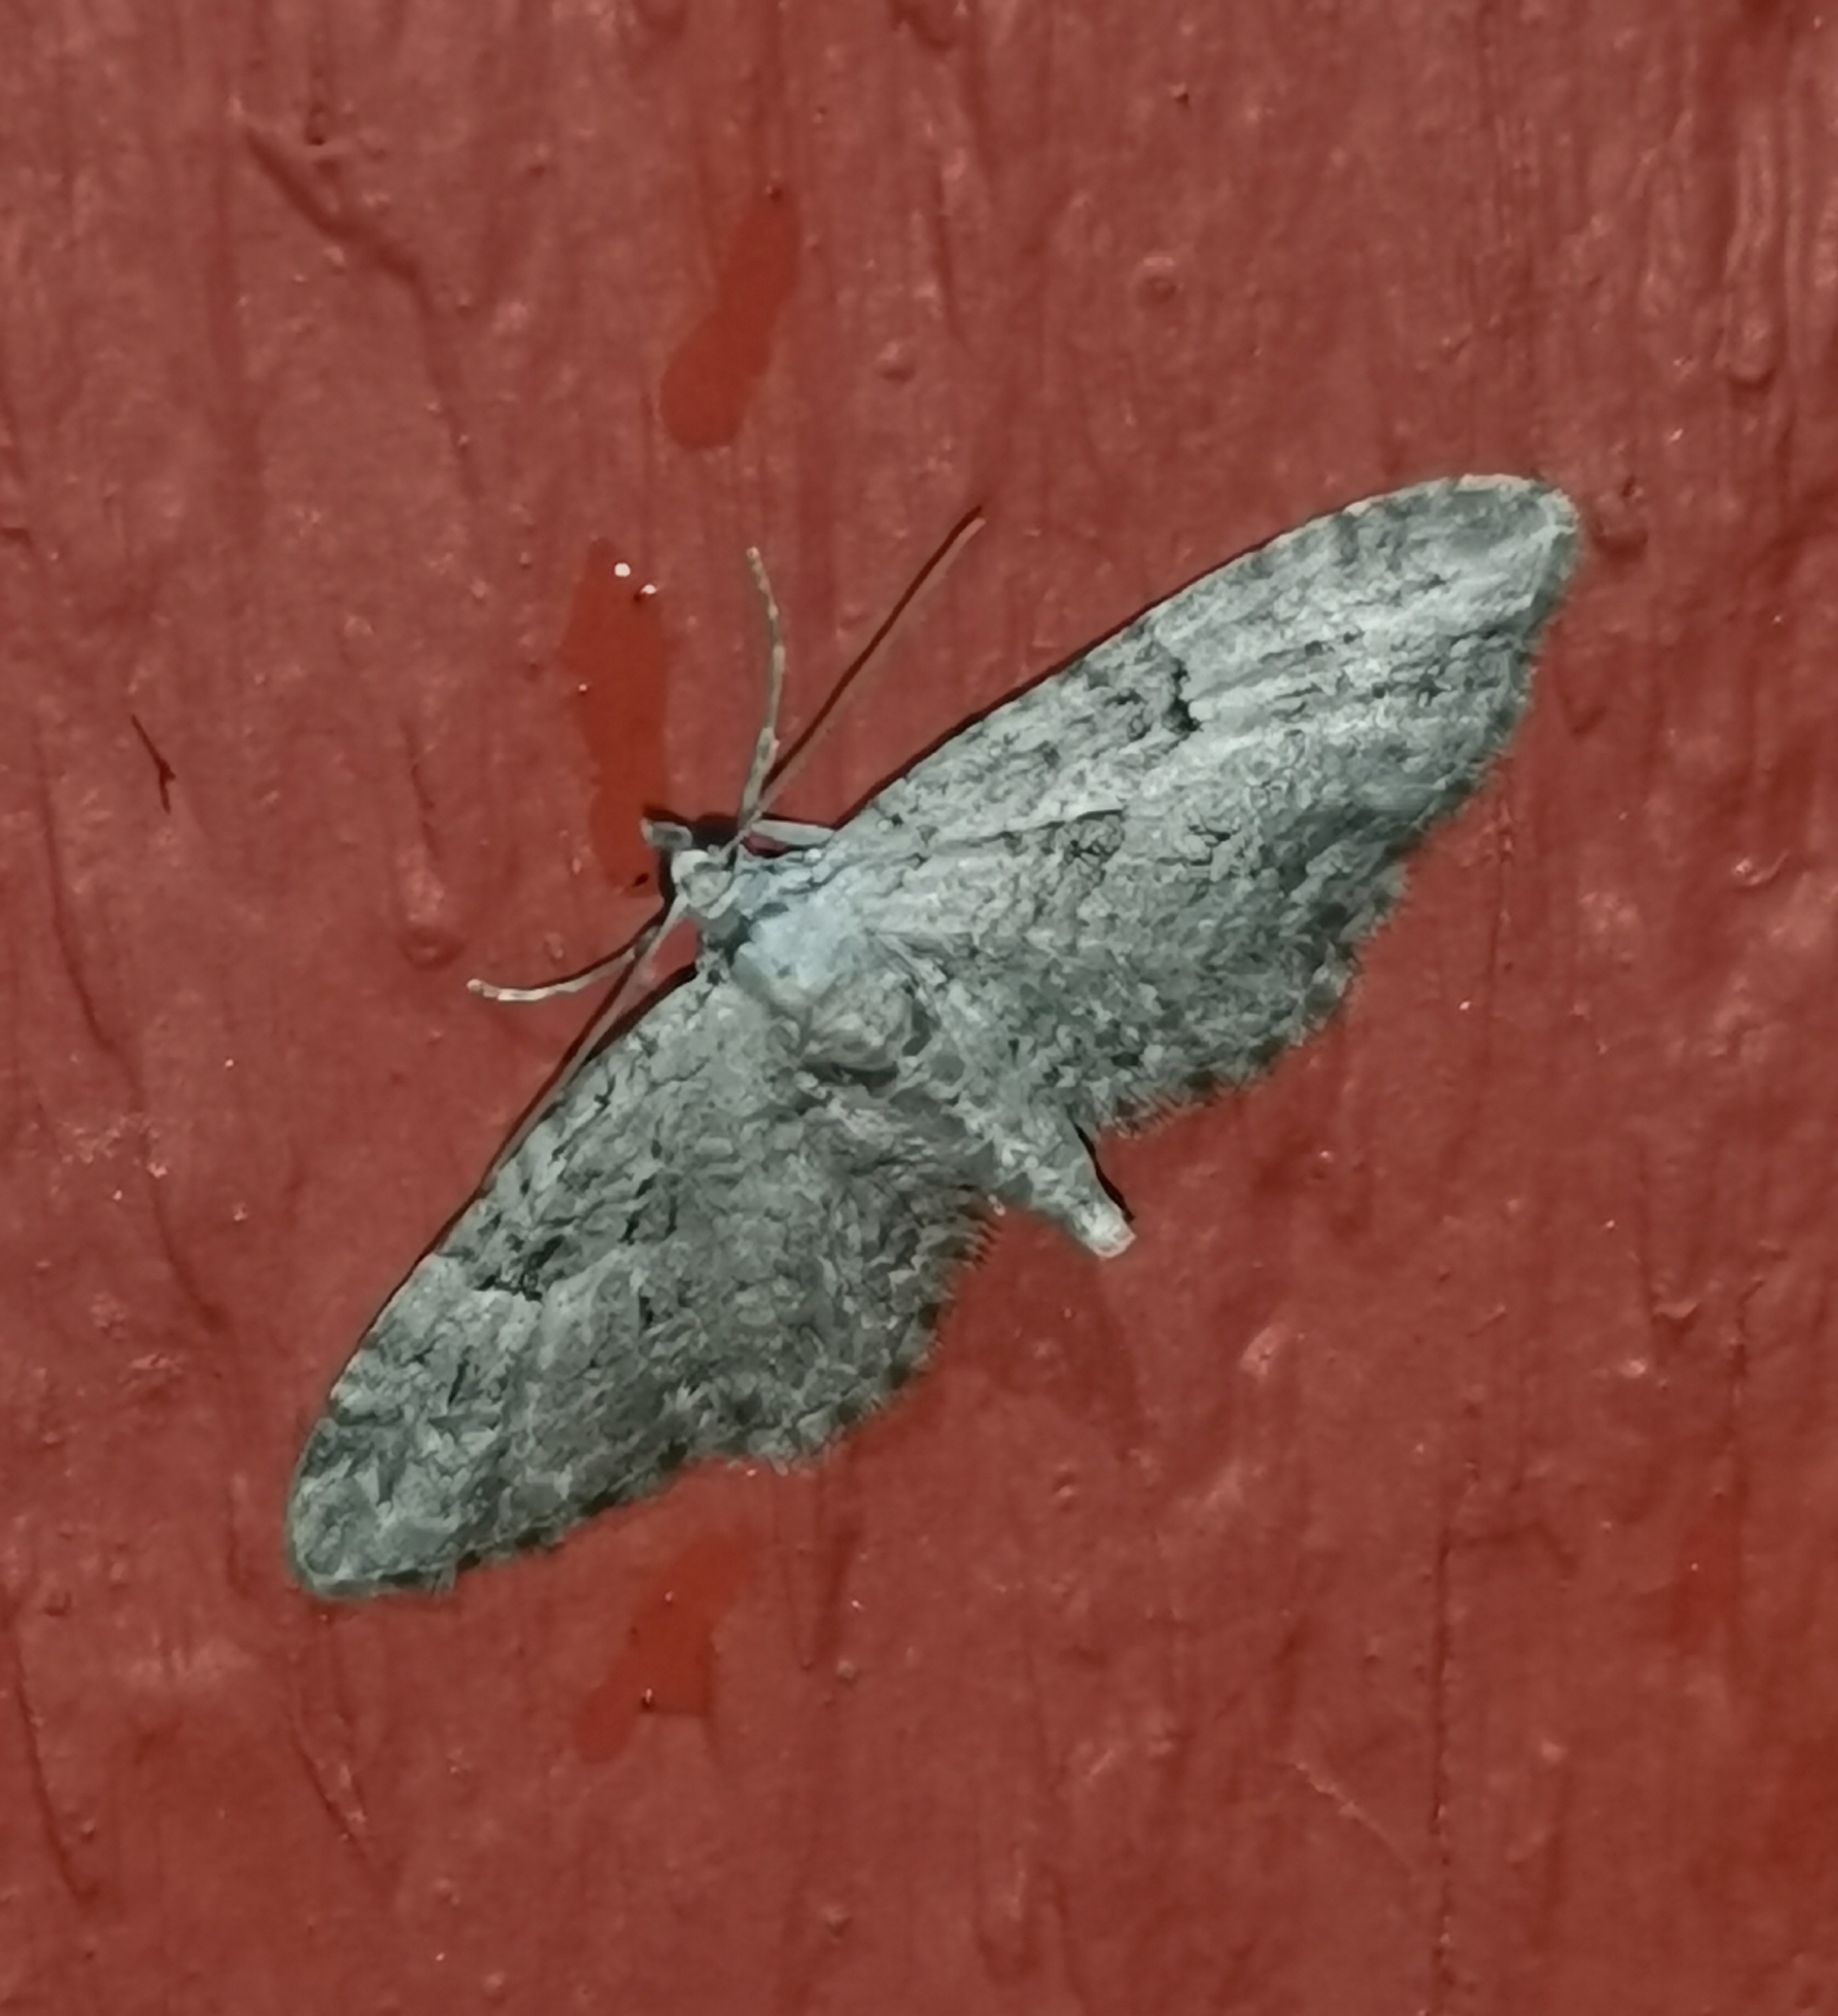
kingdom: Animalia
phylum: Arthropoda
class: Insecta
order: Lepidoptera
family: Geometridae
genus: Eupithecia
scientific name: Eupithecia pusillata
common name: Juniper pug
